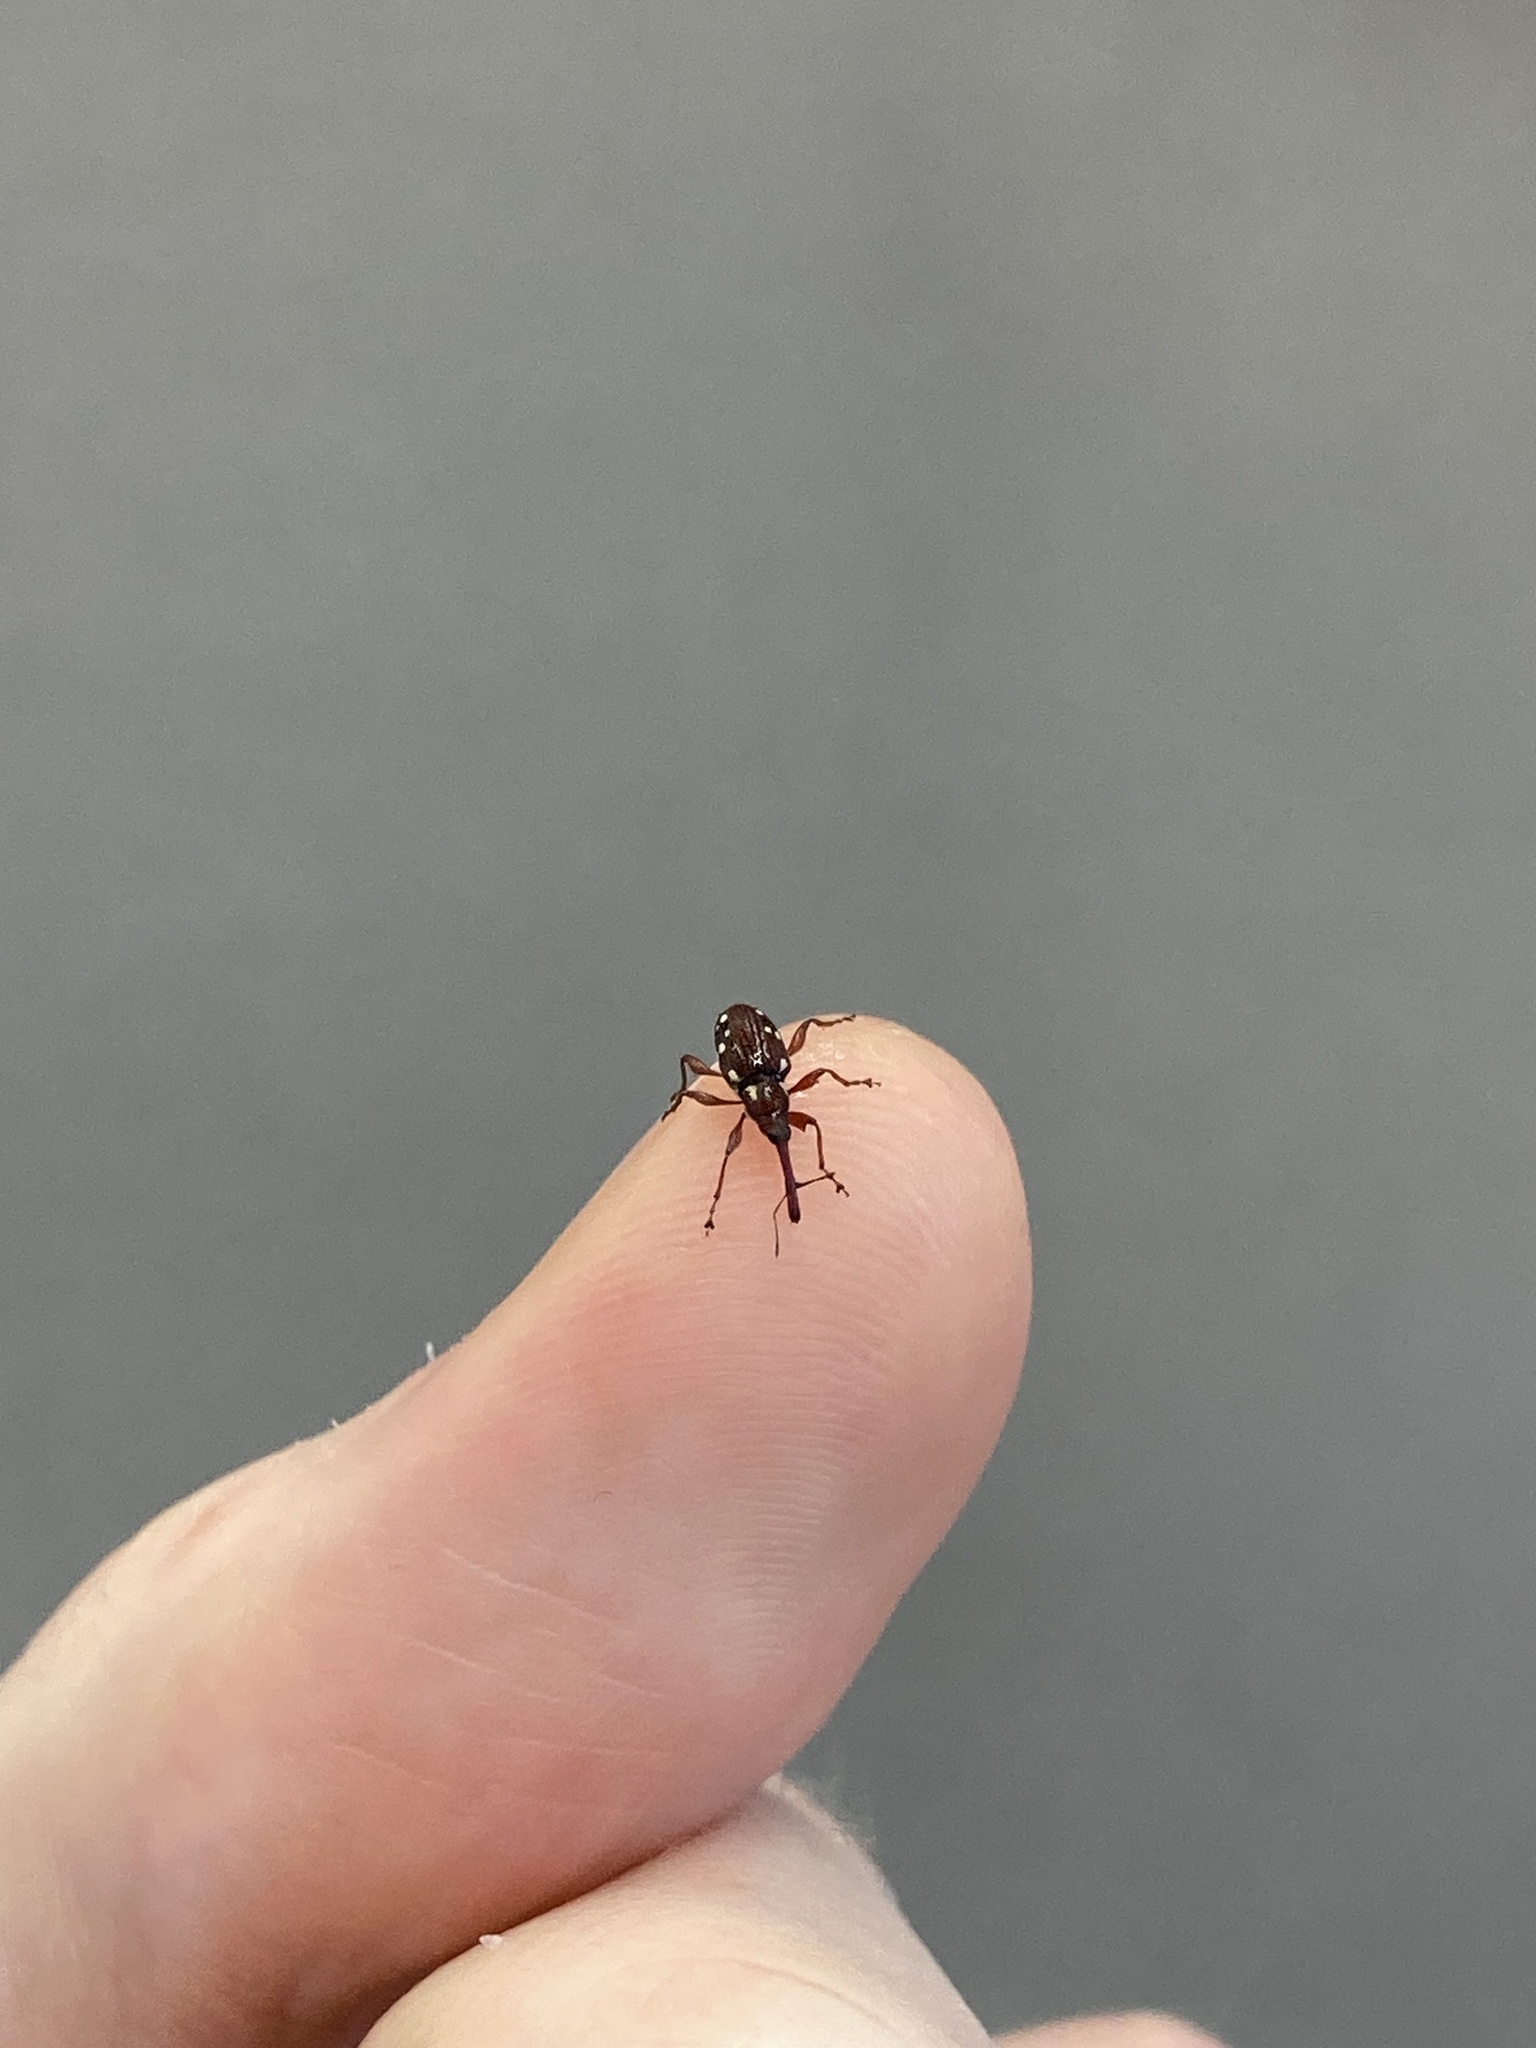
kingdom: Animalia
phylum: Arthropoda
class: Insecta
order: Coleoptera
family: Curculionidae
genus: Meriphus
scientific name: Meriphus guttatus
